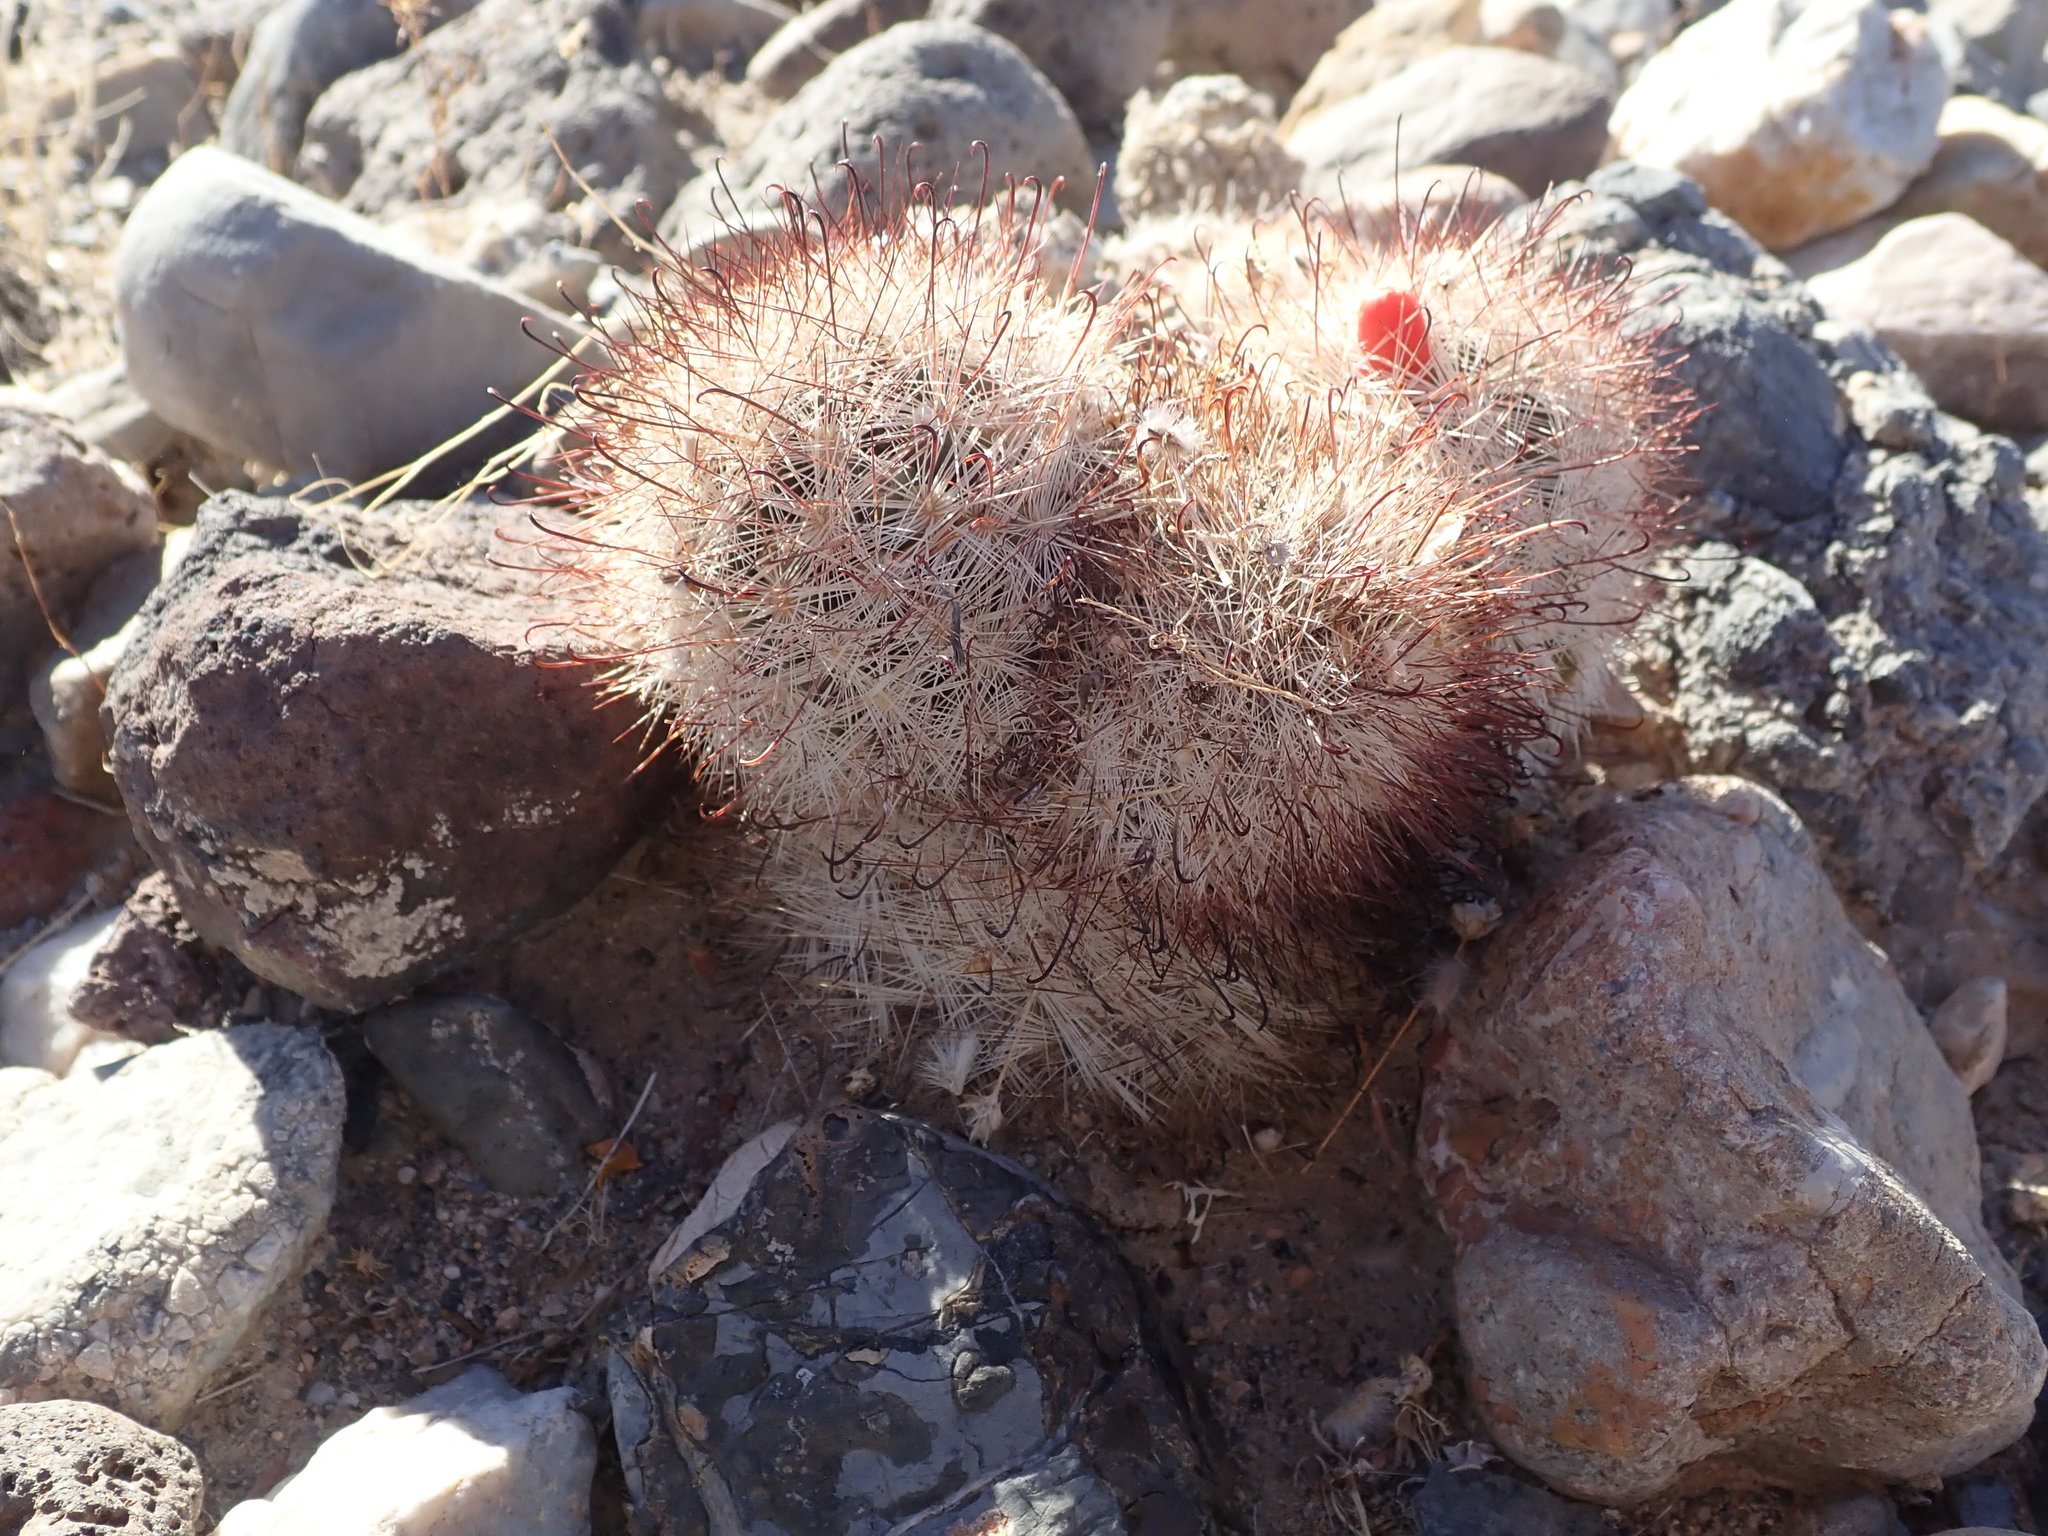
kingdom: Plantae
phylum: Tracheophyta
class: Magnoliopsida
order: Caryophyllales
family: Cactaceae
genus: Cochemiea
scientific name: Cochemiea tetrancistra
